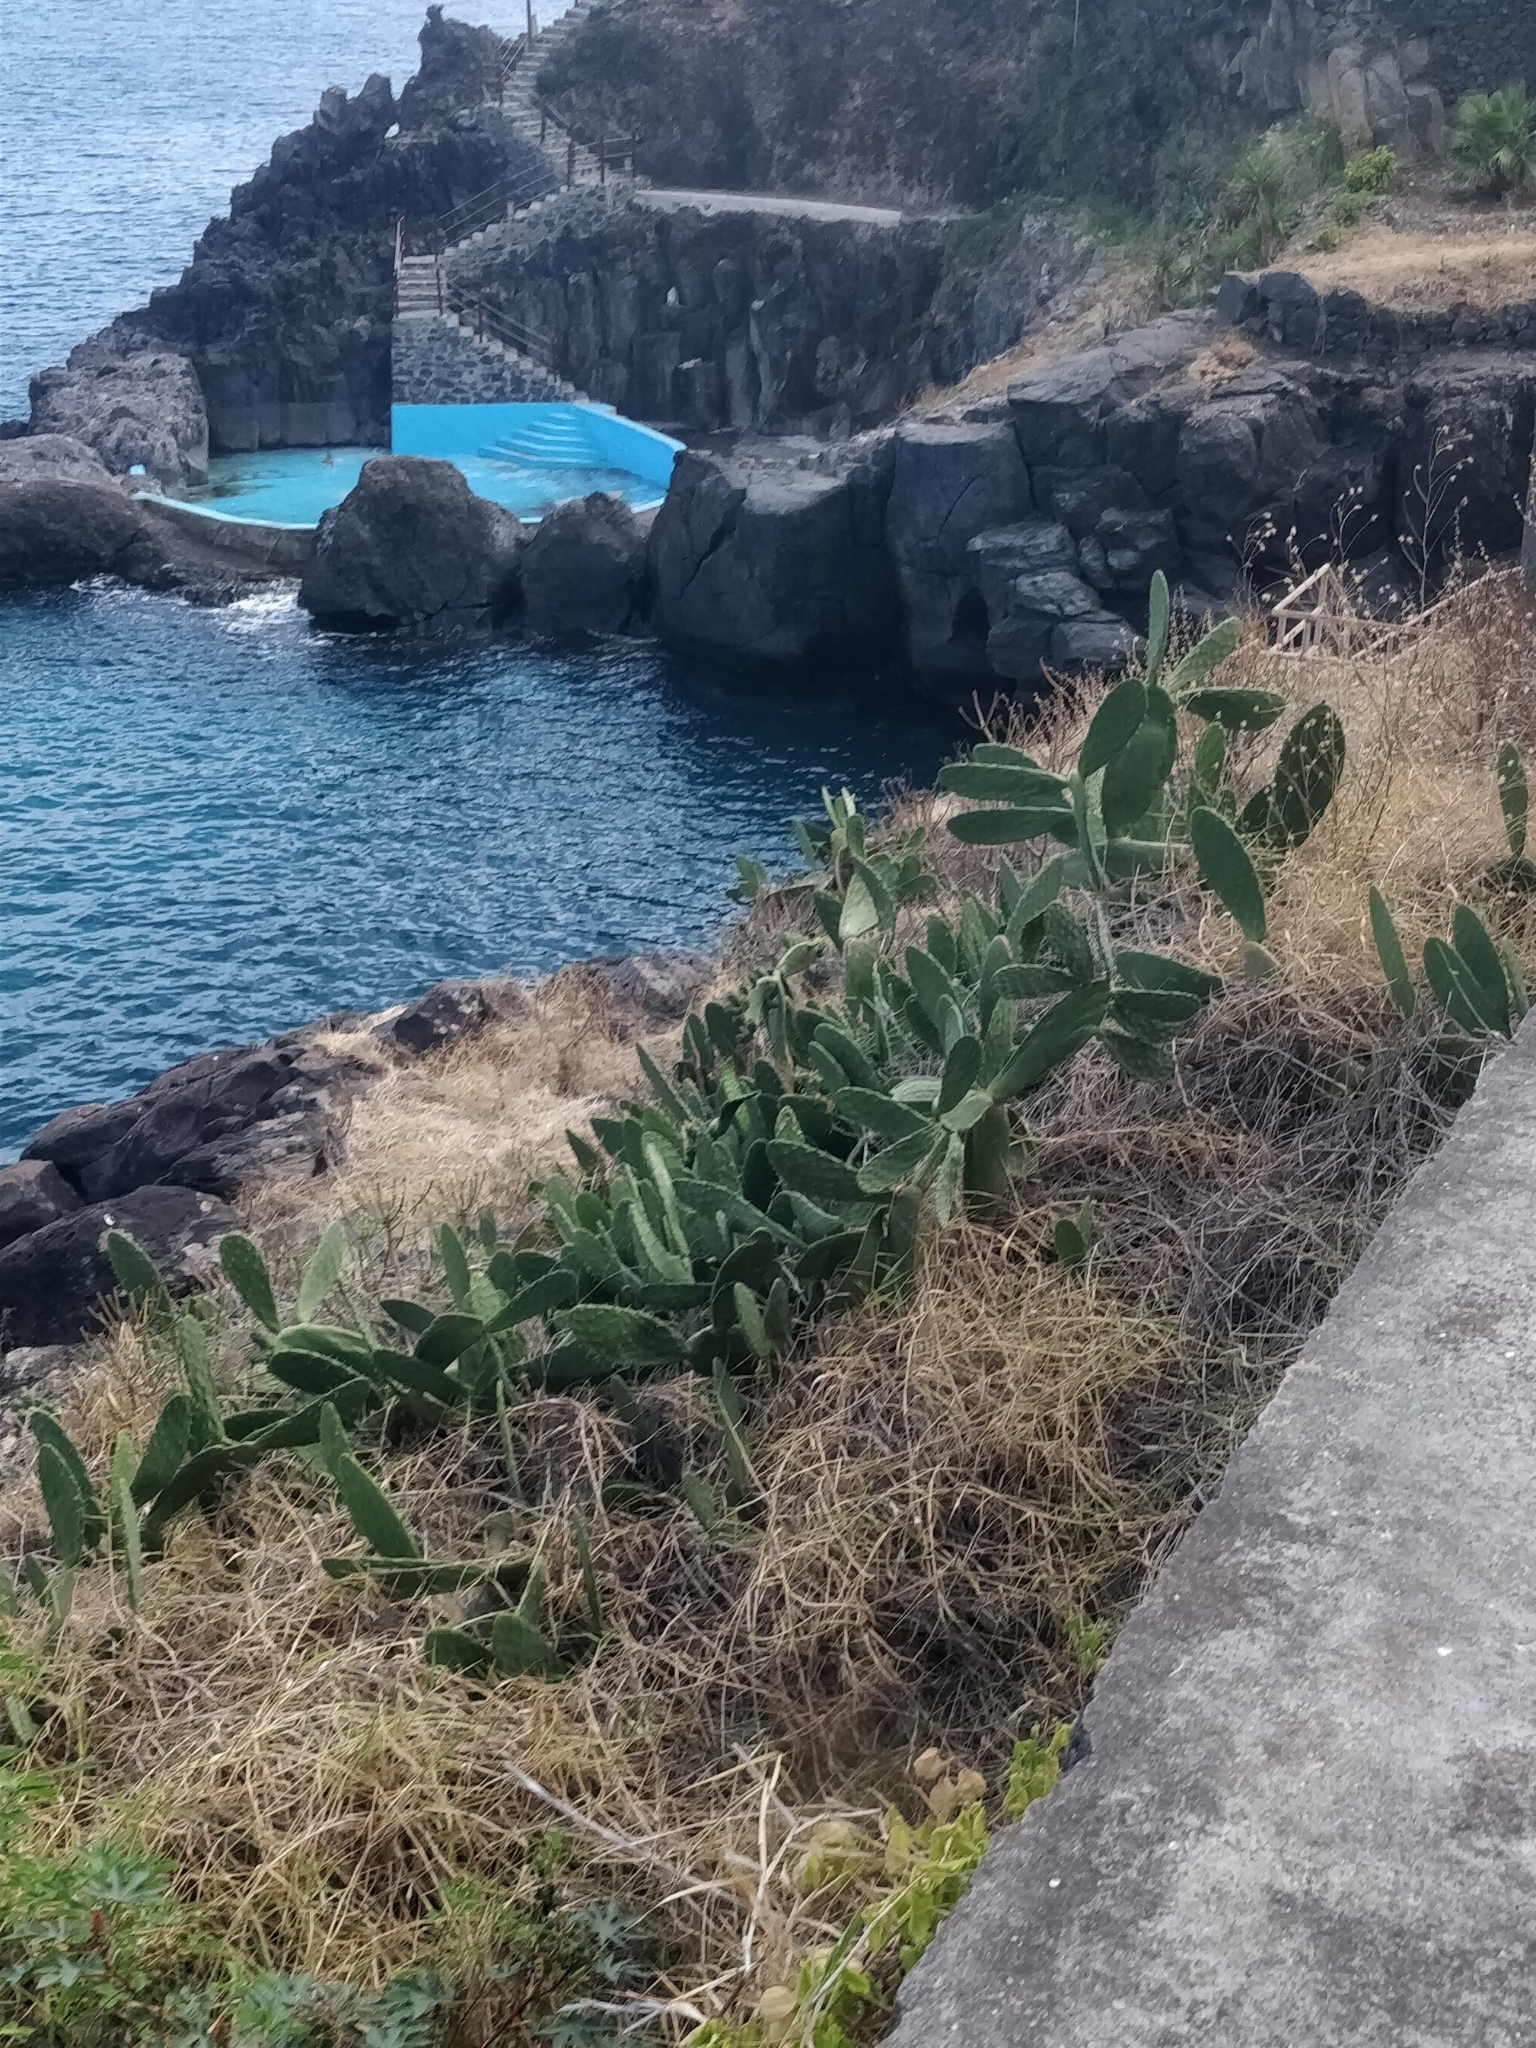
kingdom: Plantae
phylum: Tracheophyta
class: Magnoliopsida
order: Caryophyllales
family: Cactaceae
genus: Opuntia
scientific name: Opuntia ficus-indica
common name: Barbary fig
